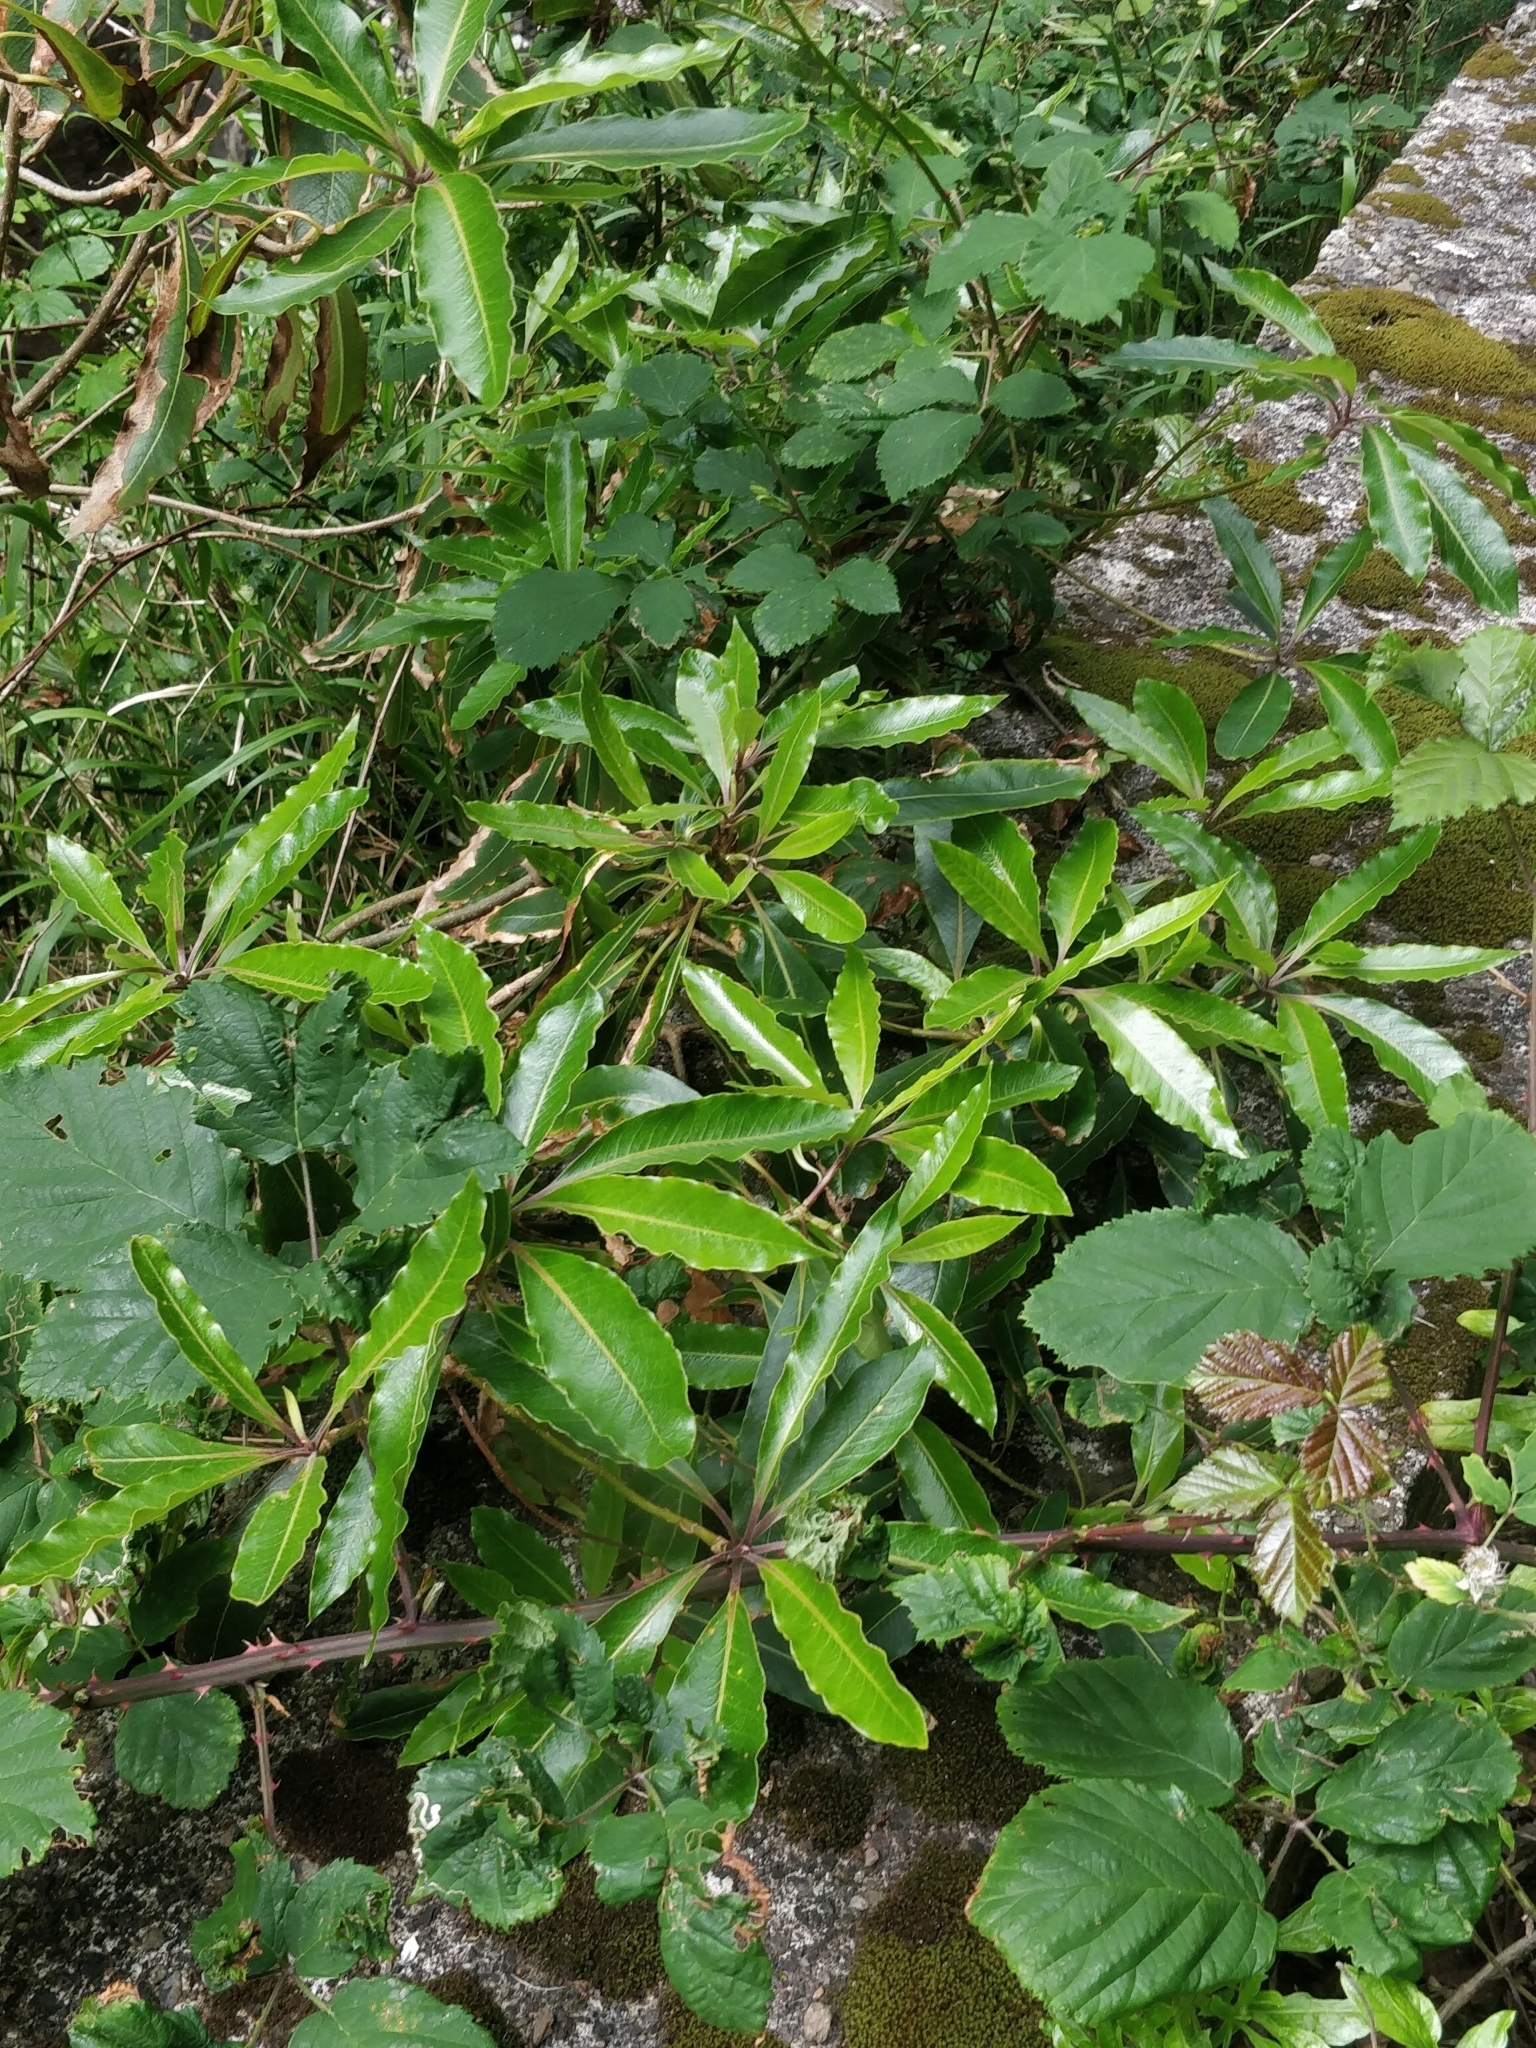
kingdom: Plantae
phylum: Tracheophyta
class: Magnoliopsida
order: Apiales
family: Pittosporaceae
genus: Pittosporum
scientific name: Pittosporum undulatum
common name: Australian cheesewood
